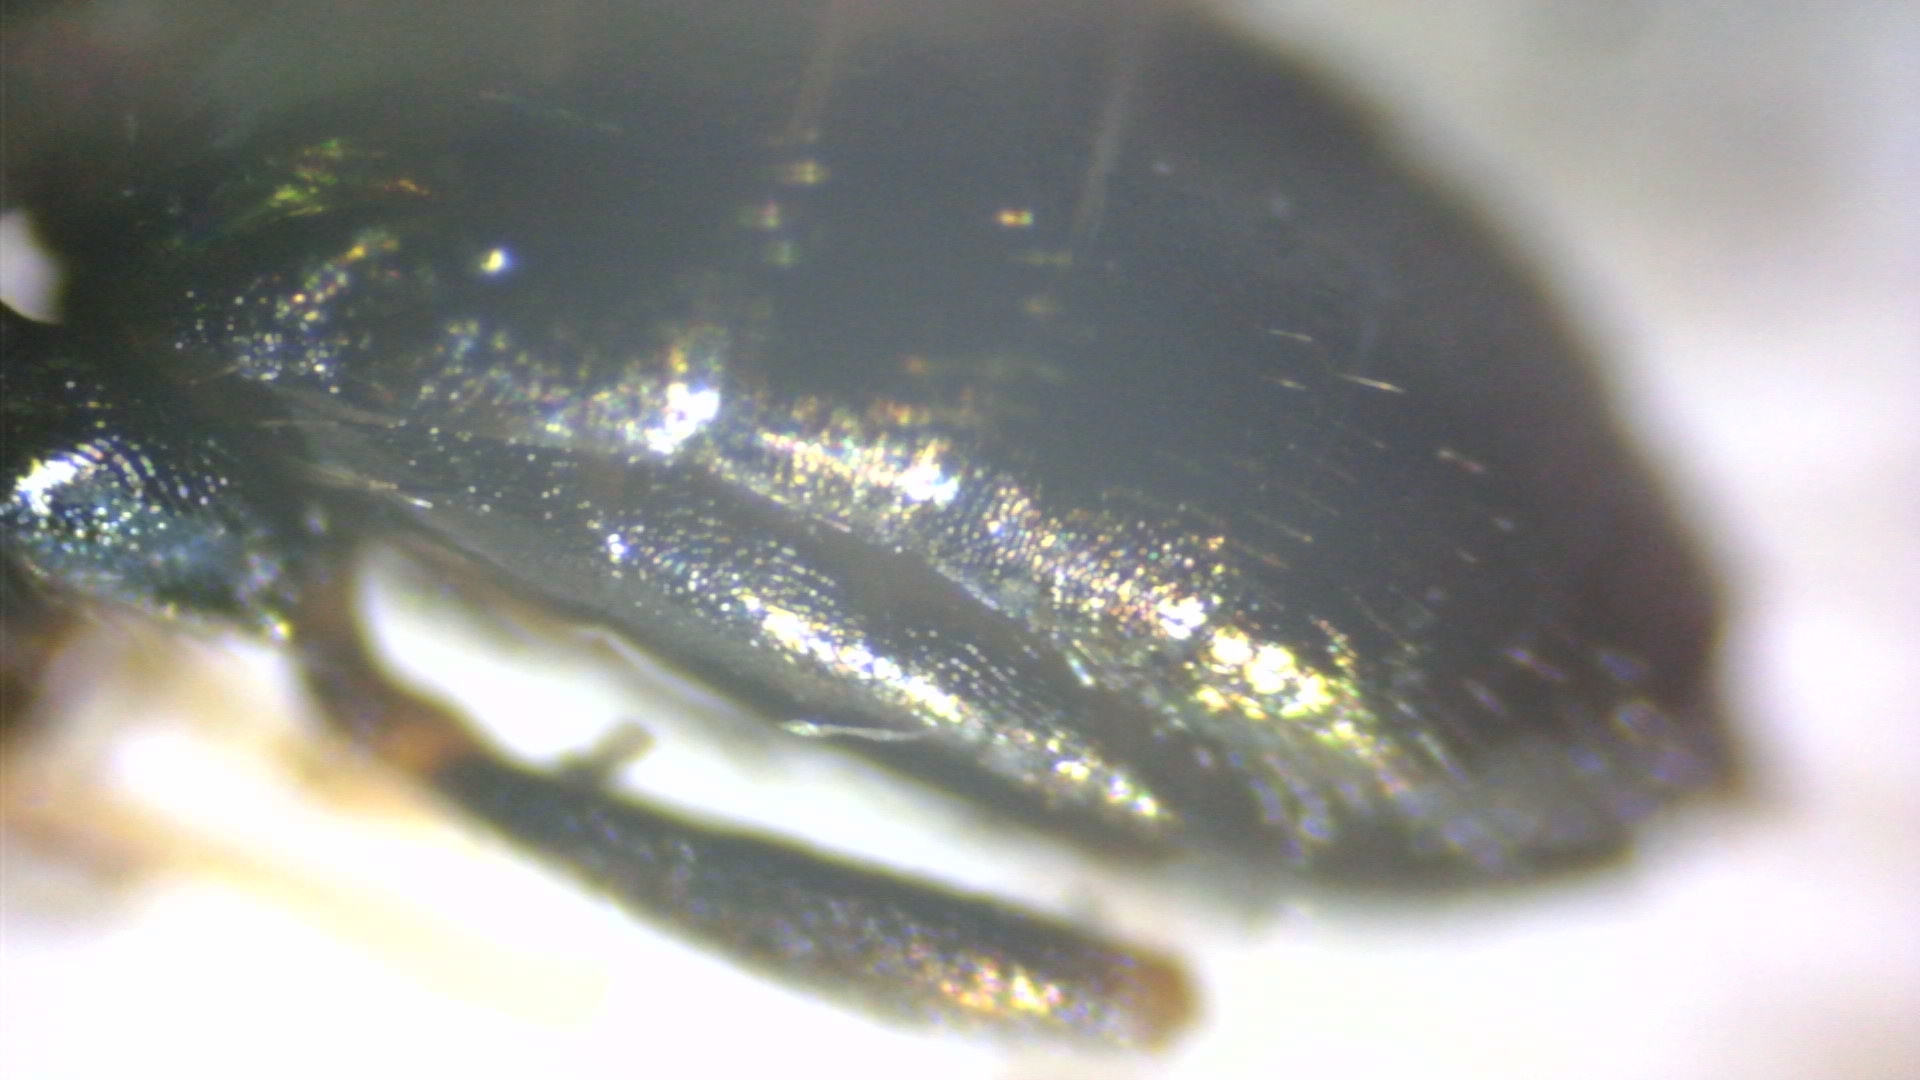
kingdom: Animalia
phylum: Arthropoda
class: Insecta
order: Hymenoptera
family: Pteromalidae
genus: Pteromalus
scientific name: Pteromalus bedeguaris
